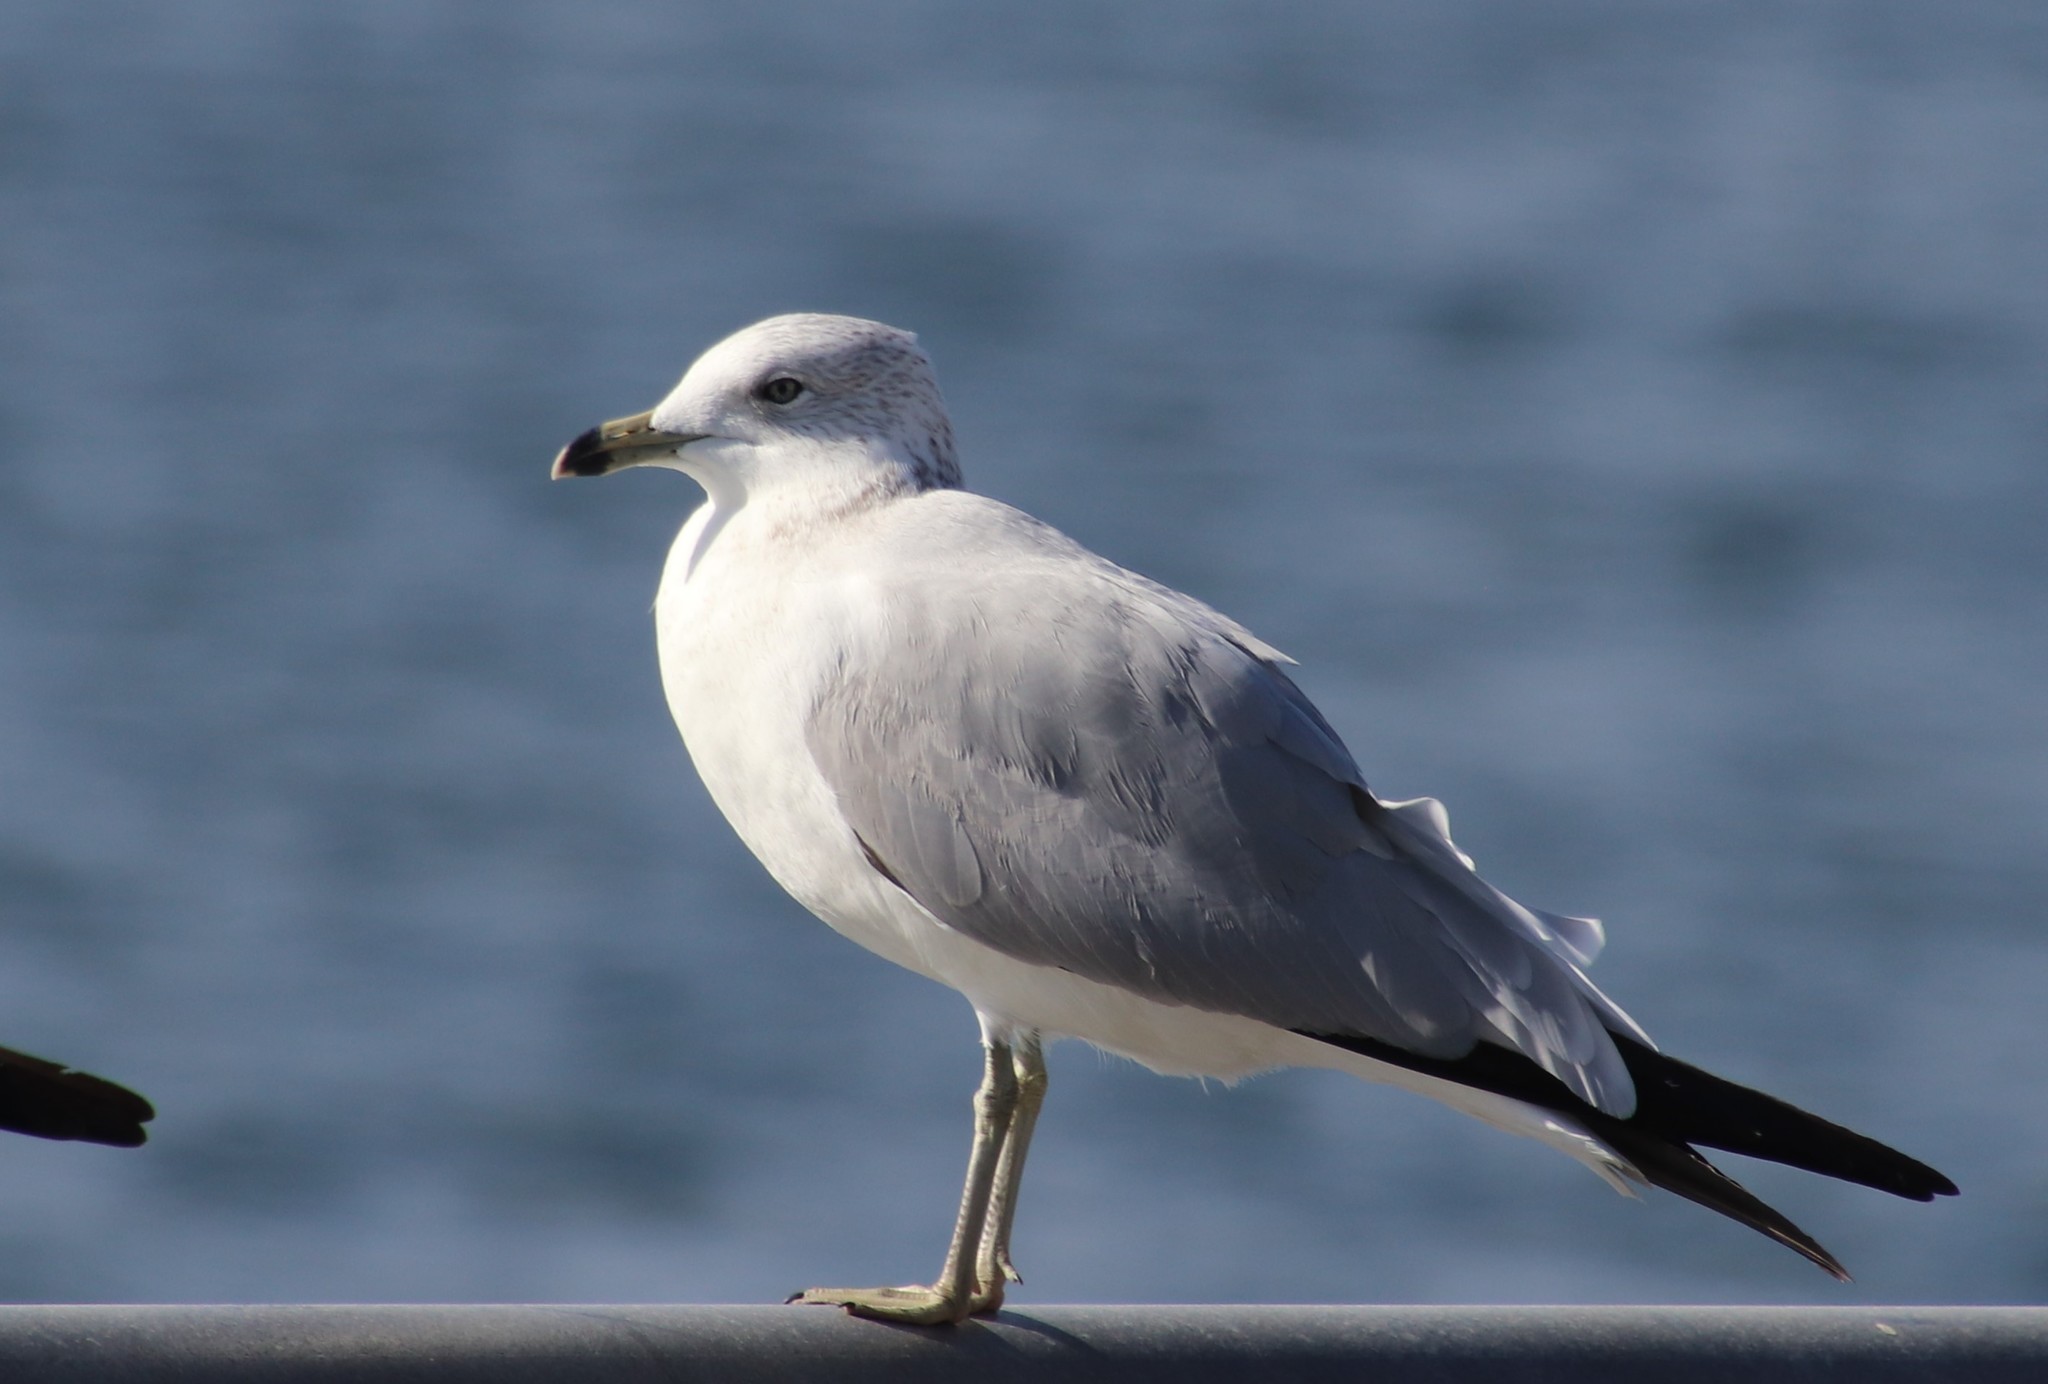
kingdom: Animalia
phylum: Chordata
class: Aves
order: Charadriiformes
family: Laridae
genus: Larus
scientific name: Larus delawarensis
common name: Ring-billed gull
